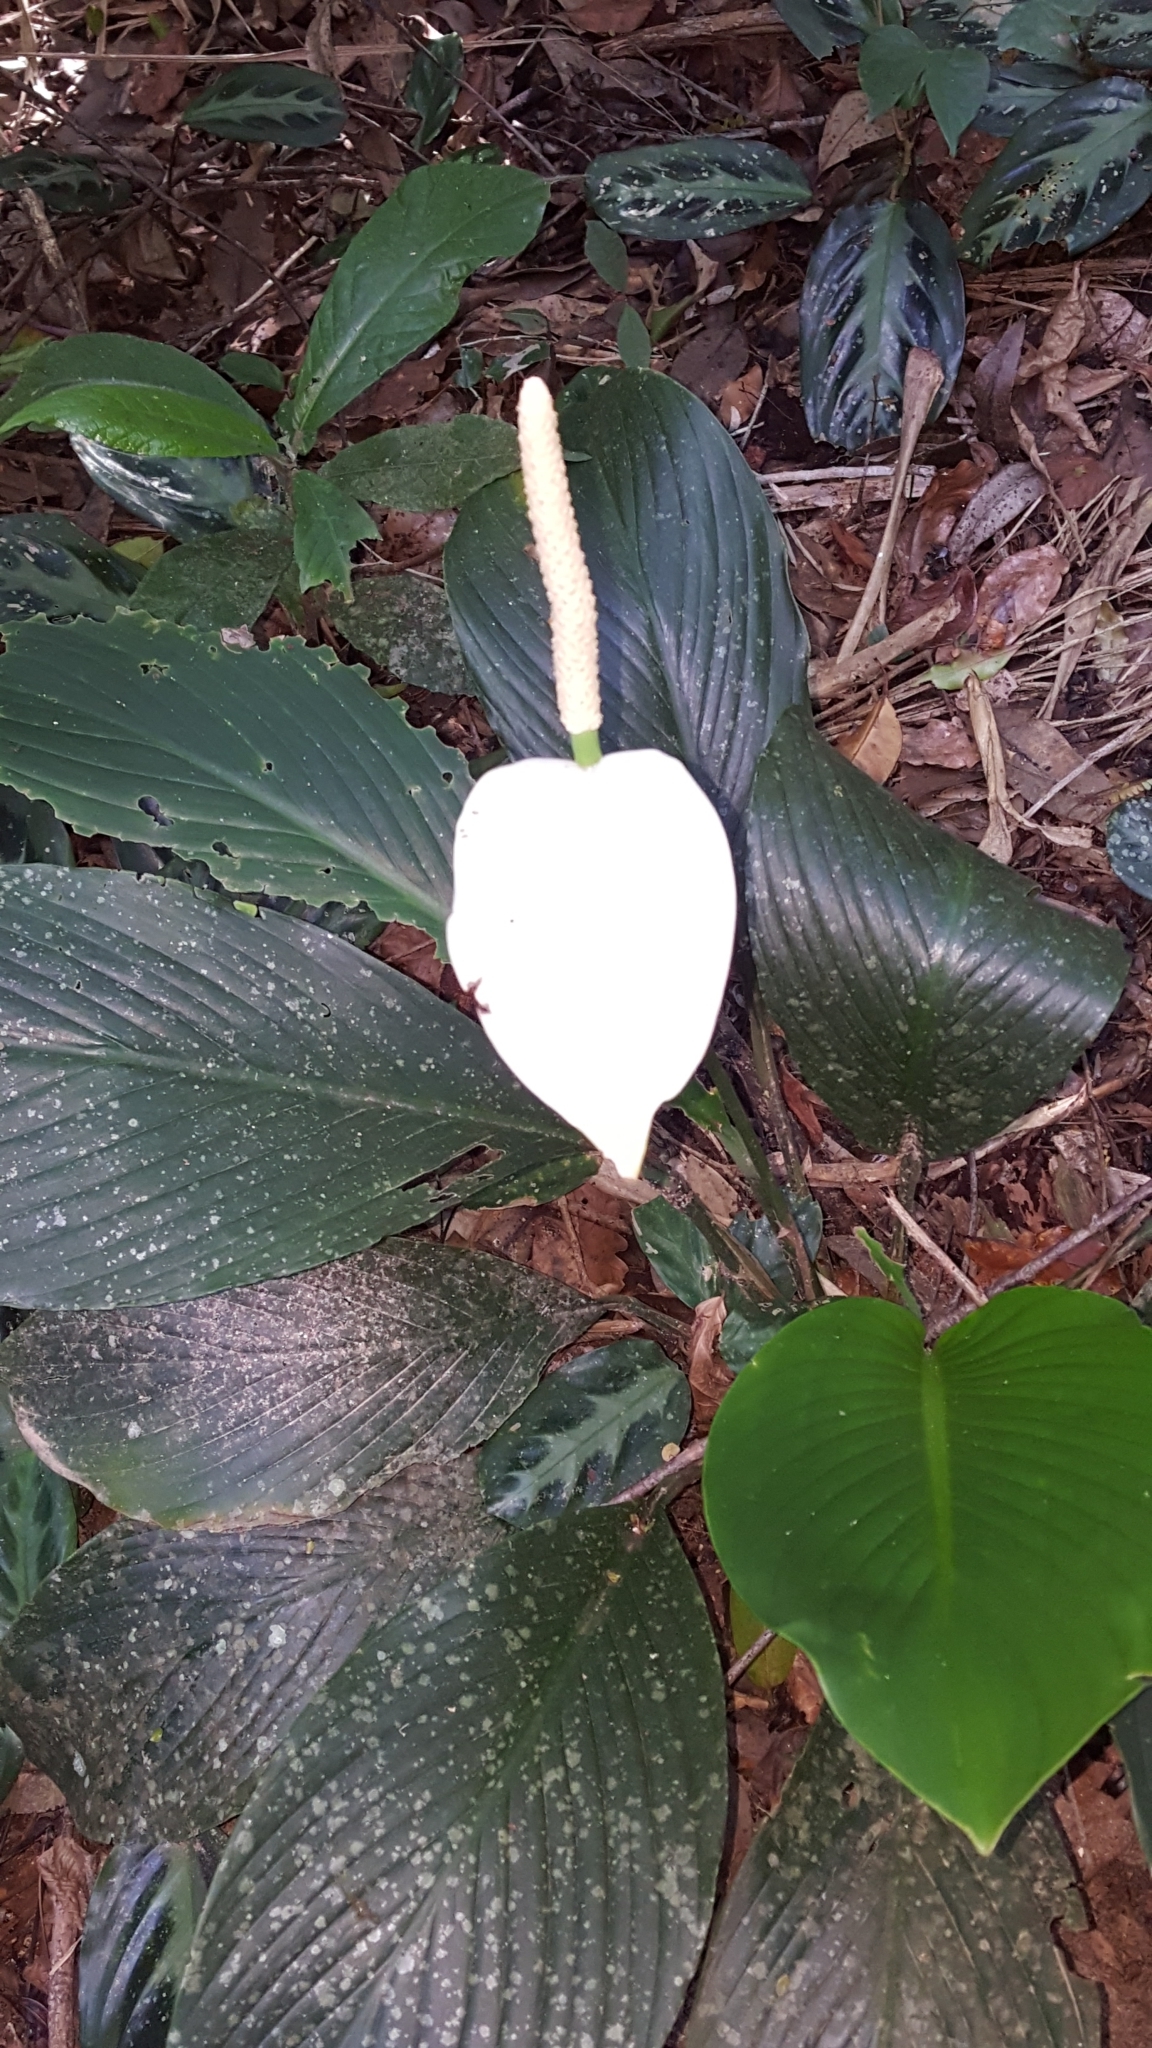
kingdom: Plantae
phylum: Tracheophyta
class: Liliopsida
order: Alismatales
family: Araceae
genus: Spathiphyllum
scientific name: Spathiphyllum cannifolium
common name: Spatheflower
